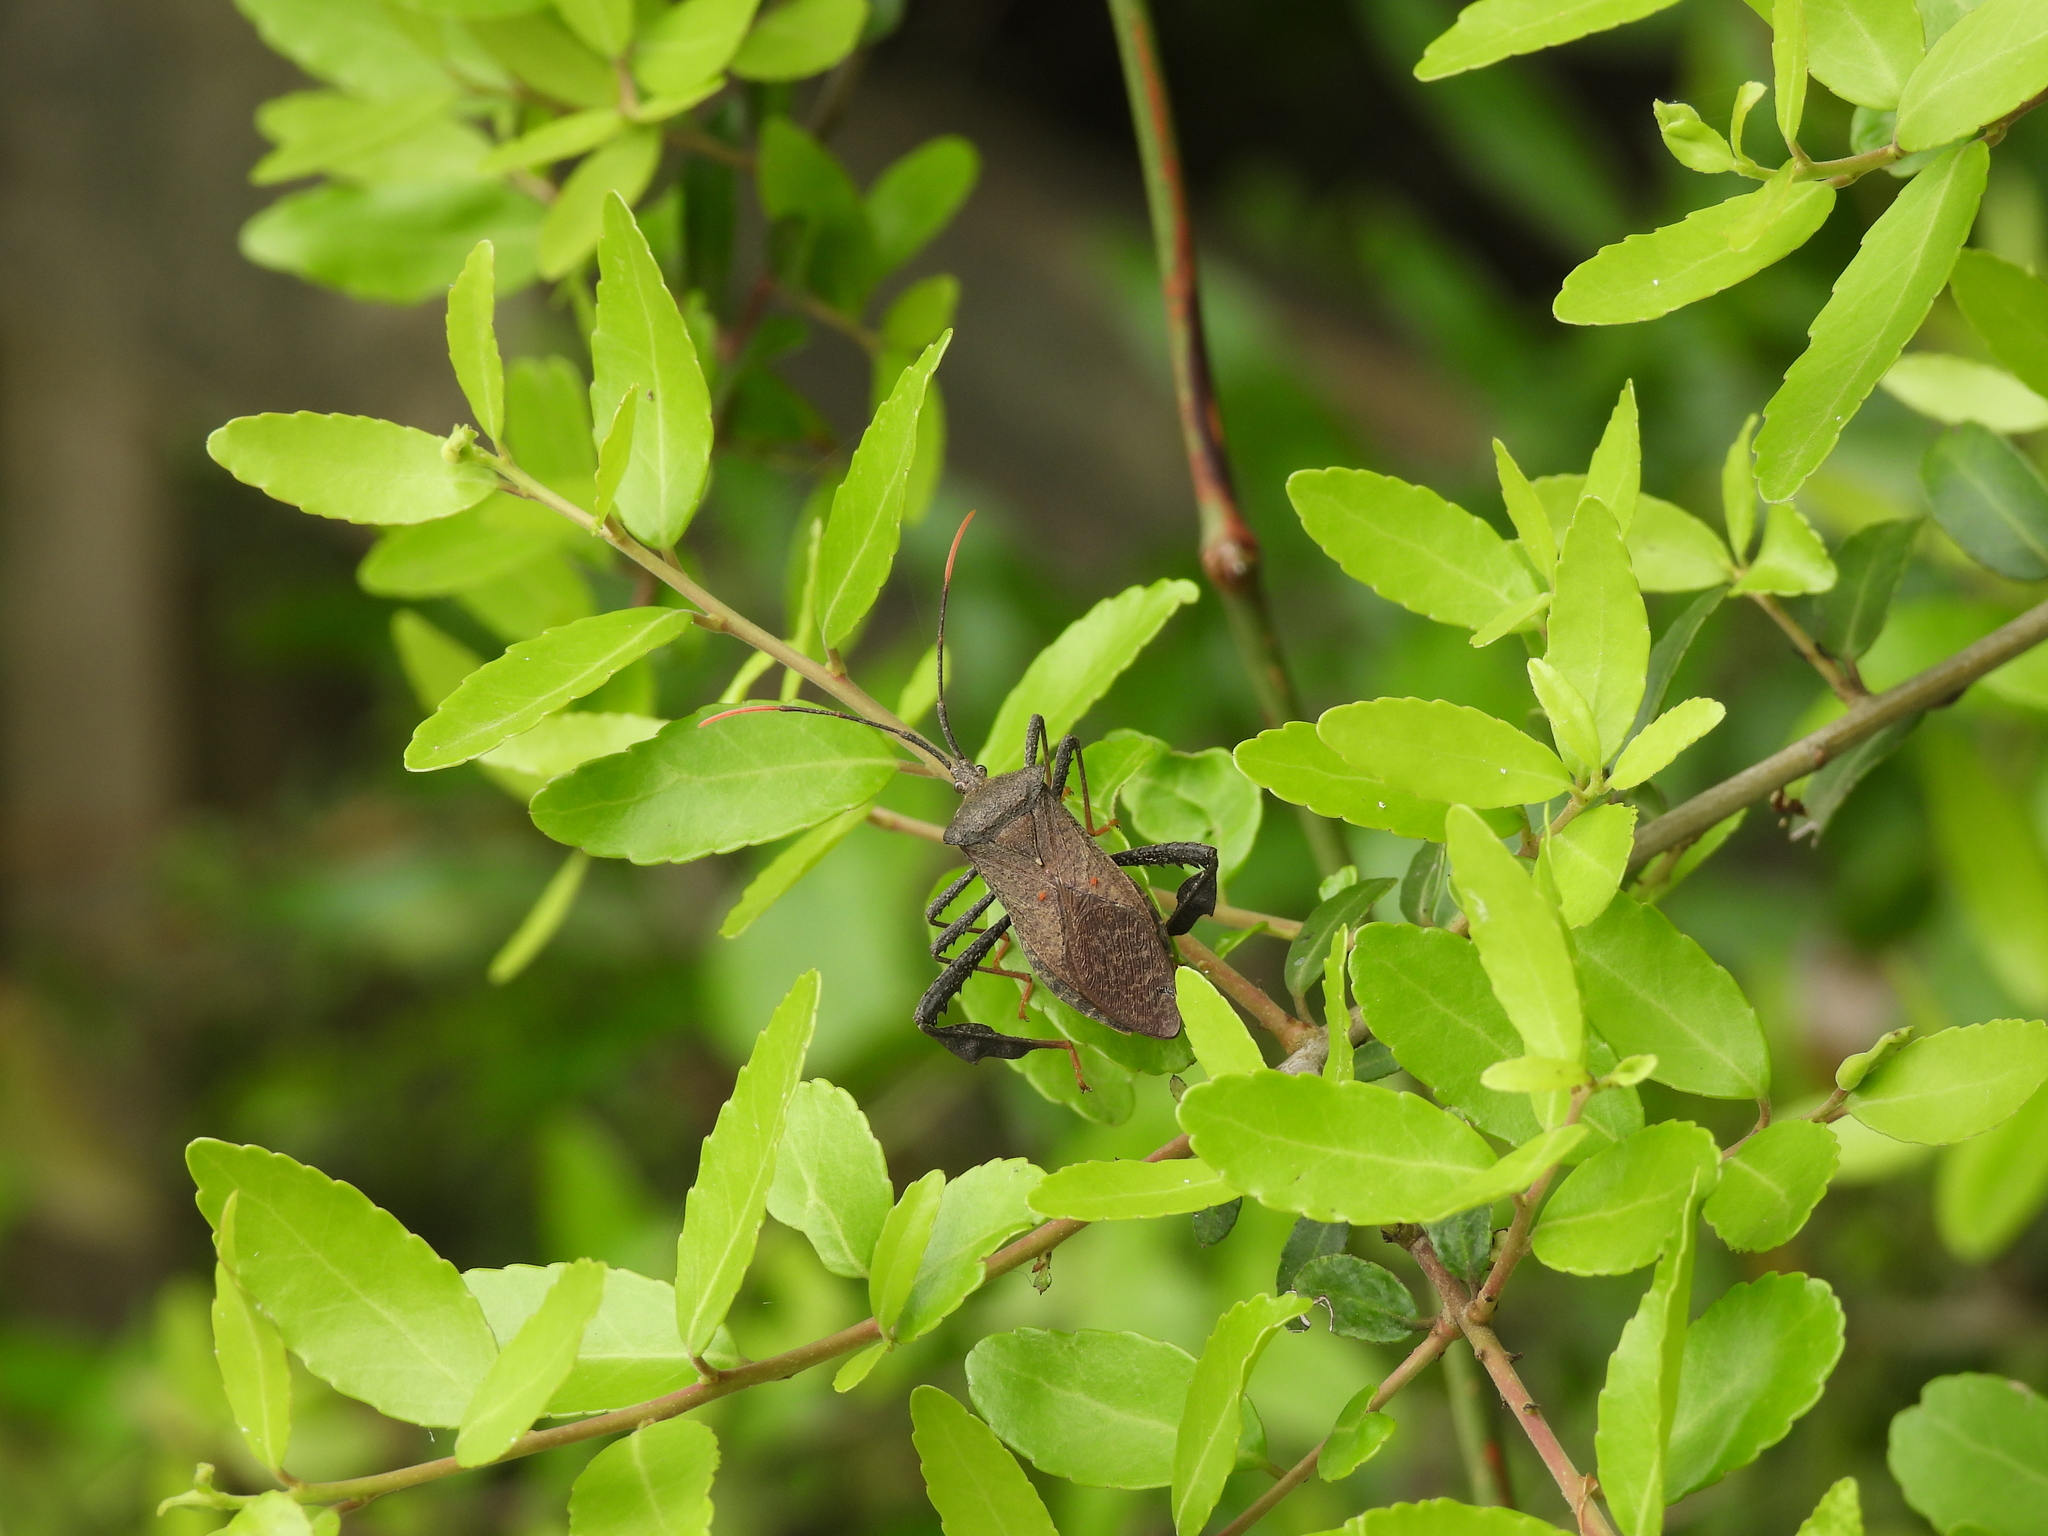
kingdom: Animalia
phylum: Arthropoda
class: Insecta
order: Hemiptera
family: Coreidae
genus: Acanthocephala
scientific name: Acanthocephala terminalis
